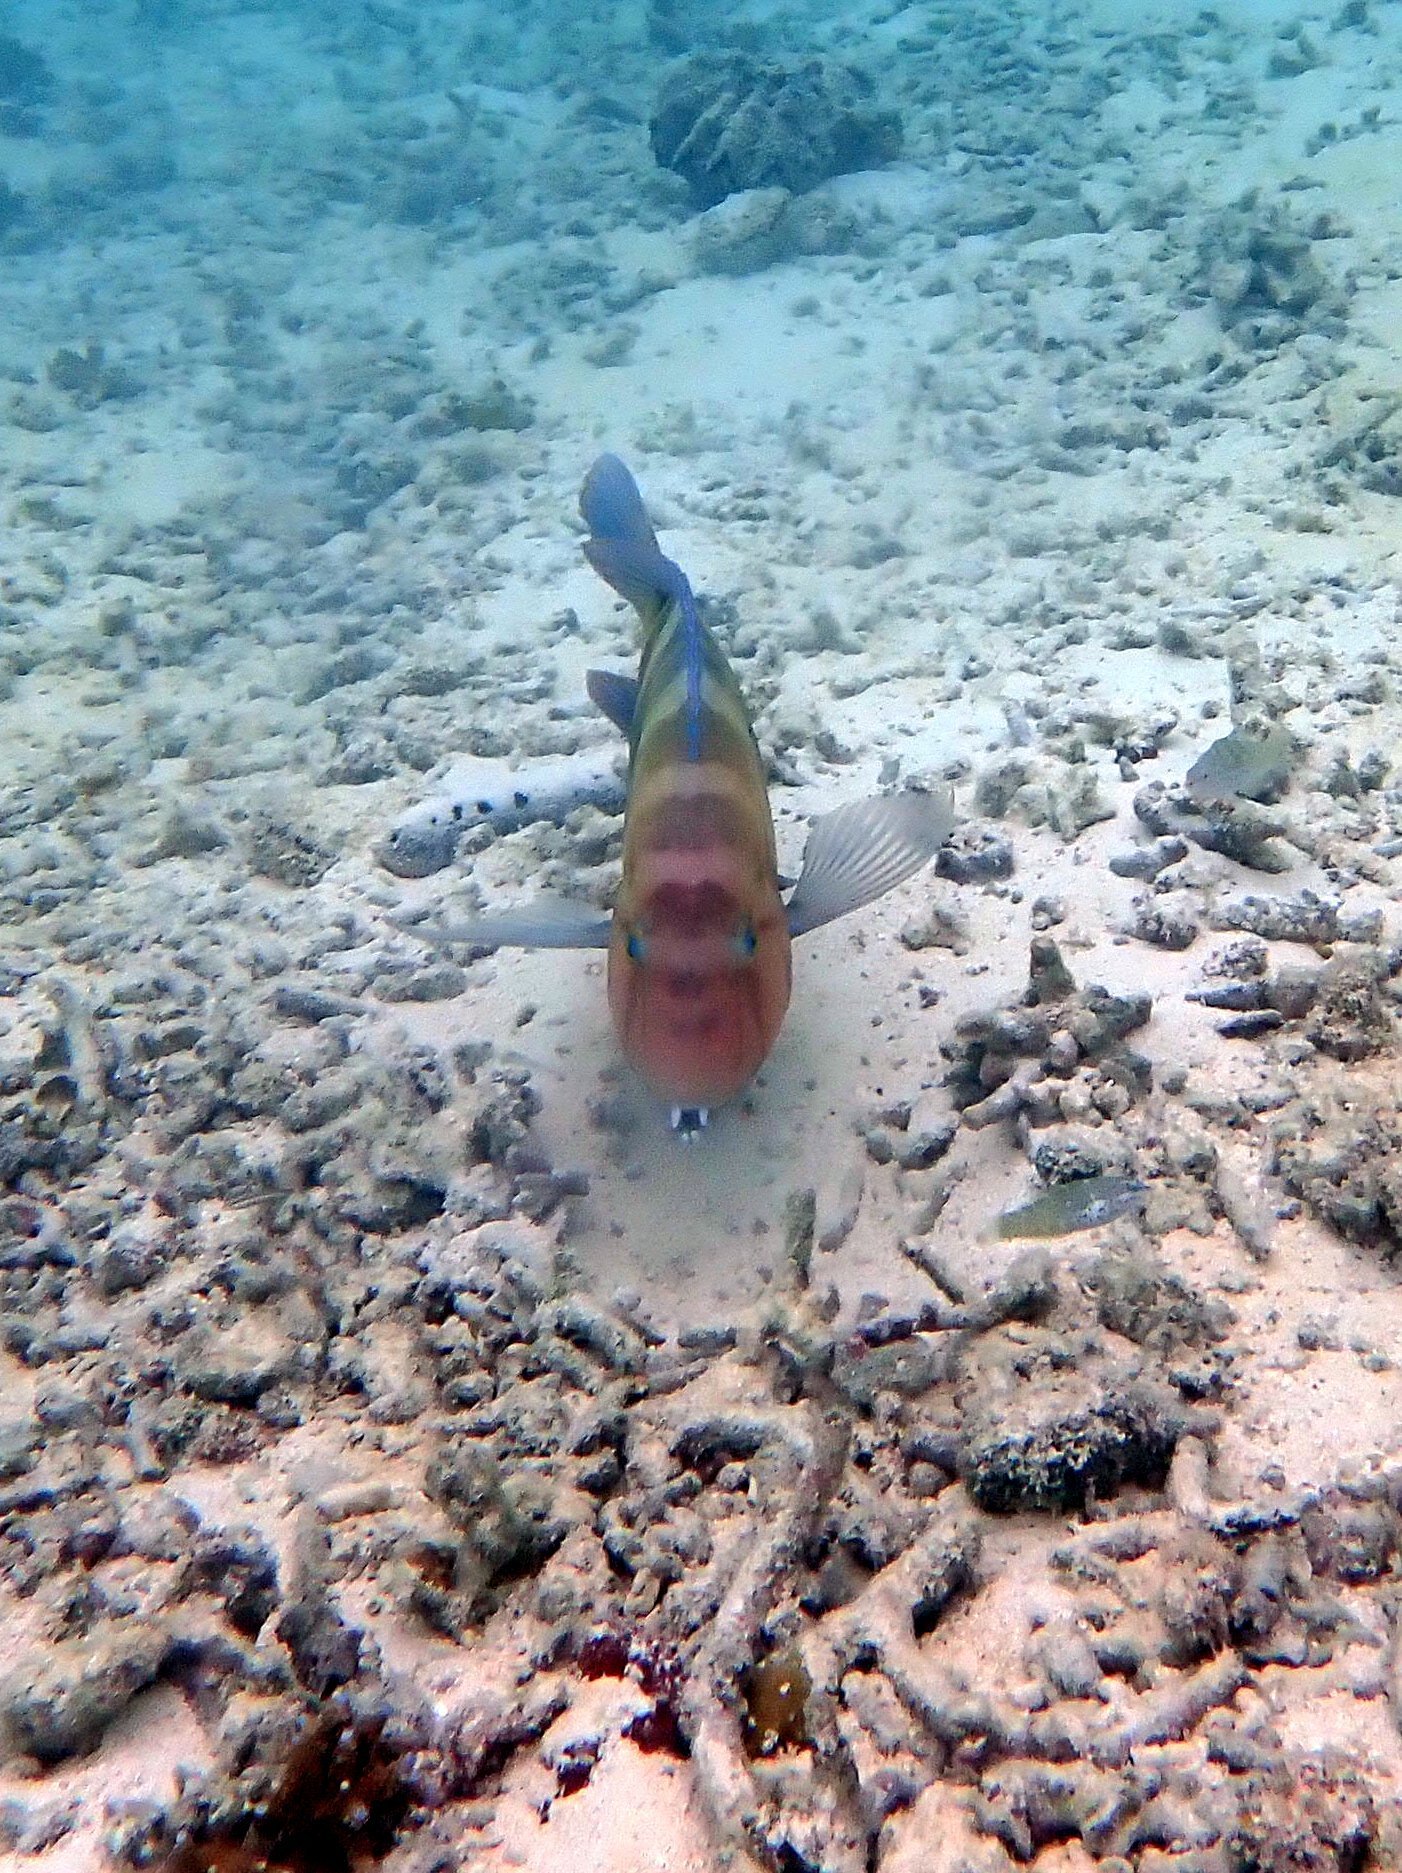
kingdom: Animalia
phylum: Chordata
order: Perciformes
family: Labridae
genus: Choerodon
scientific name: Choerodon graphicus
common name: Graphic tuskfish
